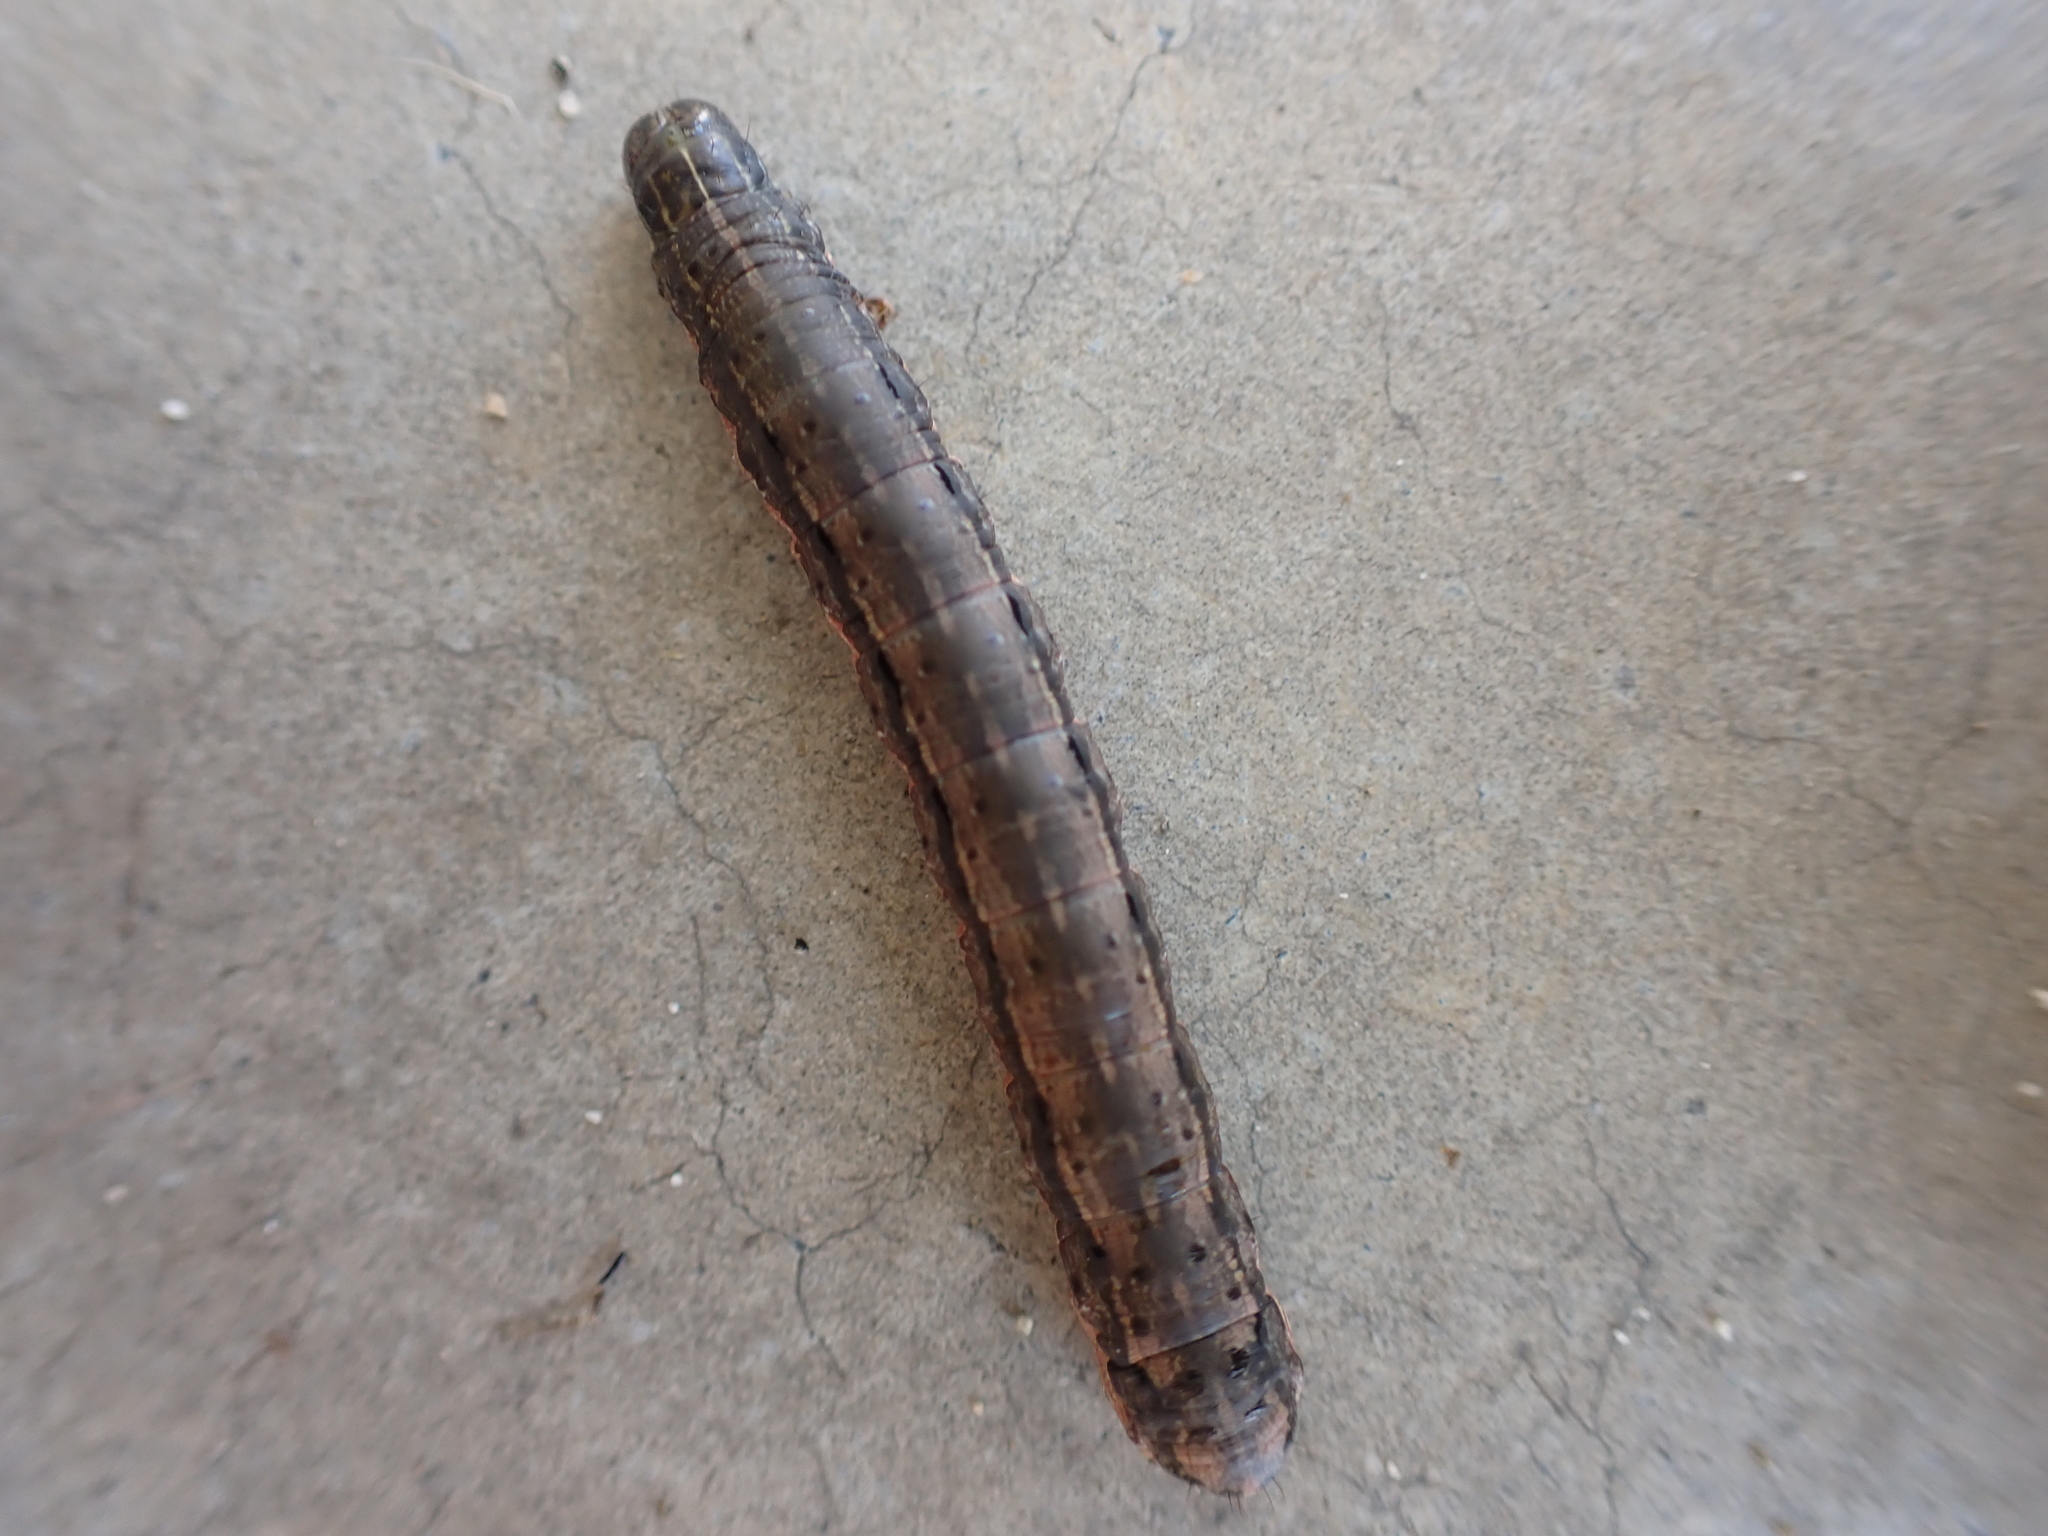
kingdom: Animalia
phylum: Arthropoda
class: Insecta
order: Lepidoptera
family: Noctuidae
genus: Spodoptera
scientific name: Spodoptera frugiperda
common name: Fall armyworm
